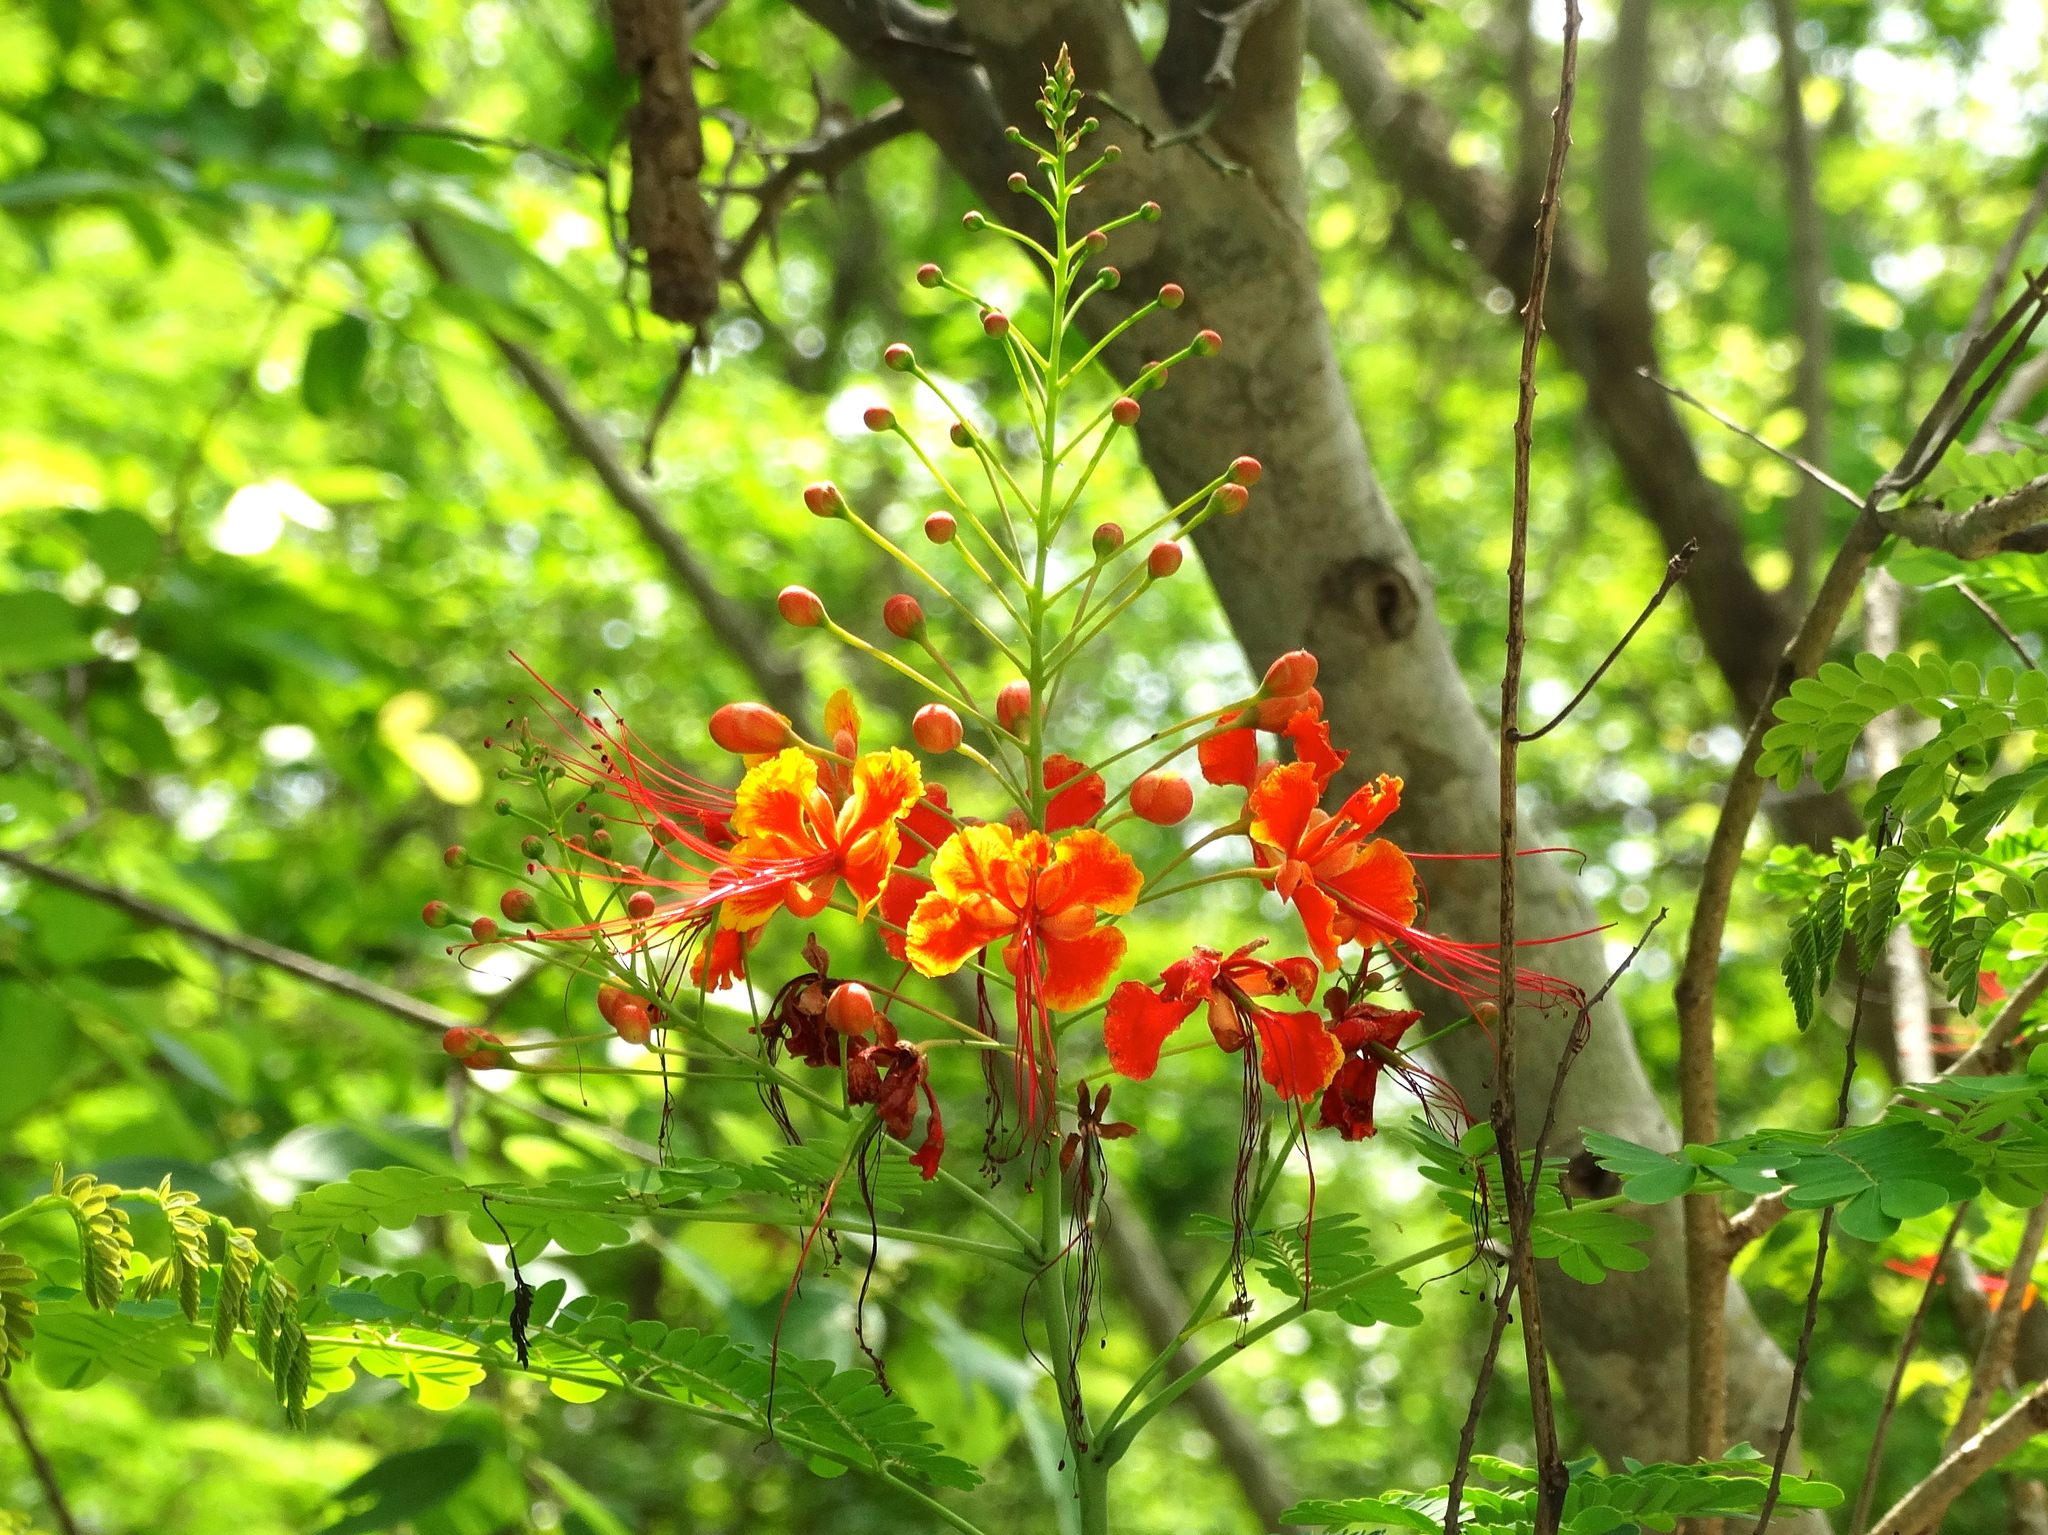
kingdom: Plantae
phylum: Tracheophyta
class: Magnoliopsida
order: Fabales
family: Fabaceae
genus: Caesalpinia
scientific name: Caesalpinia pulcherrima
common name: Pride-of-barbados
